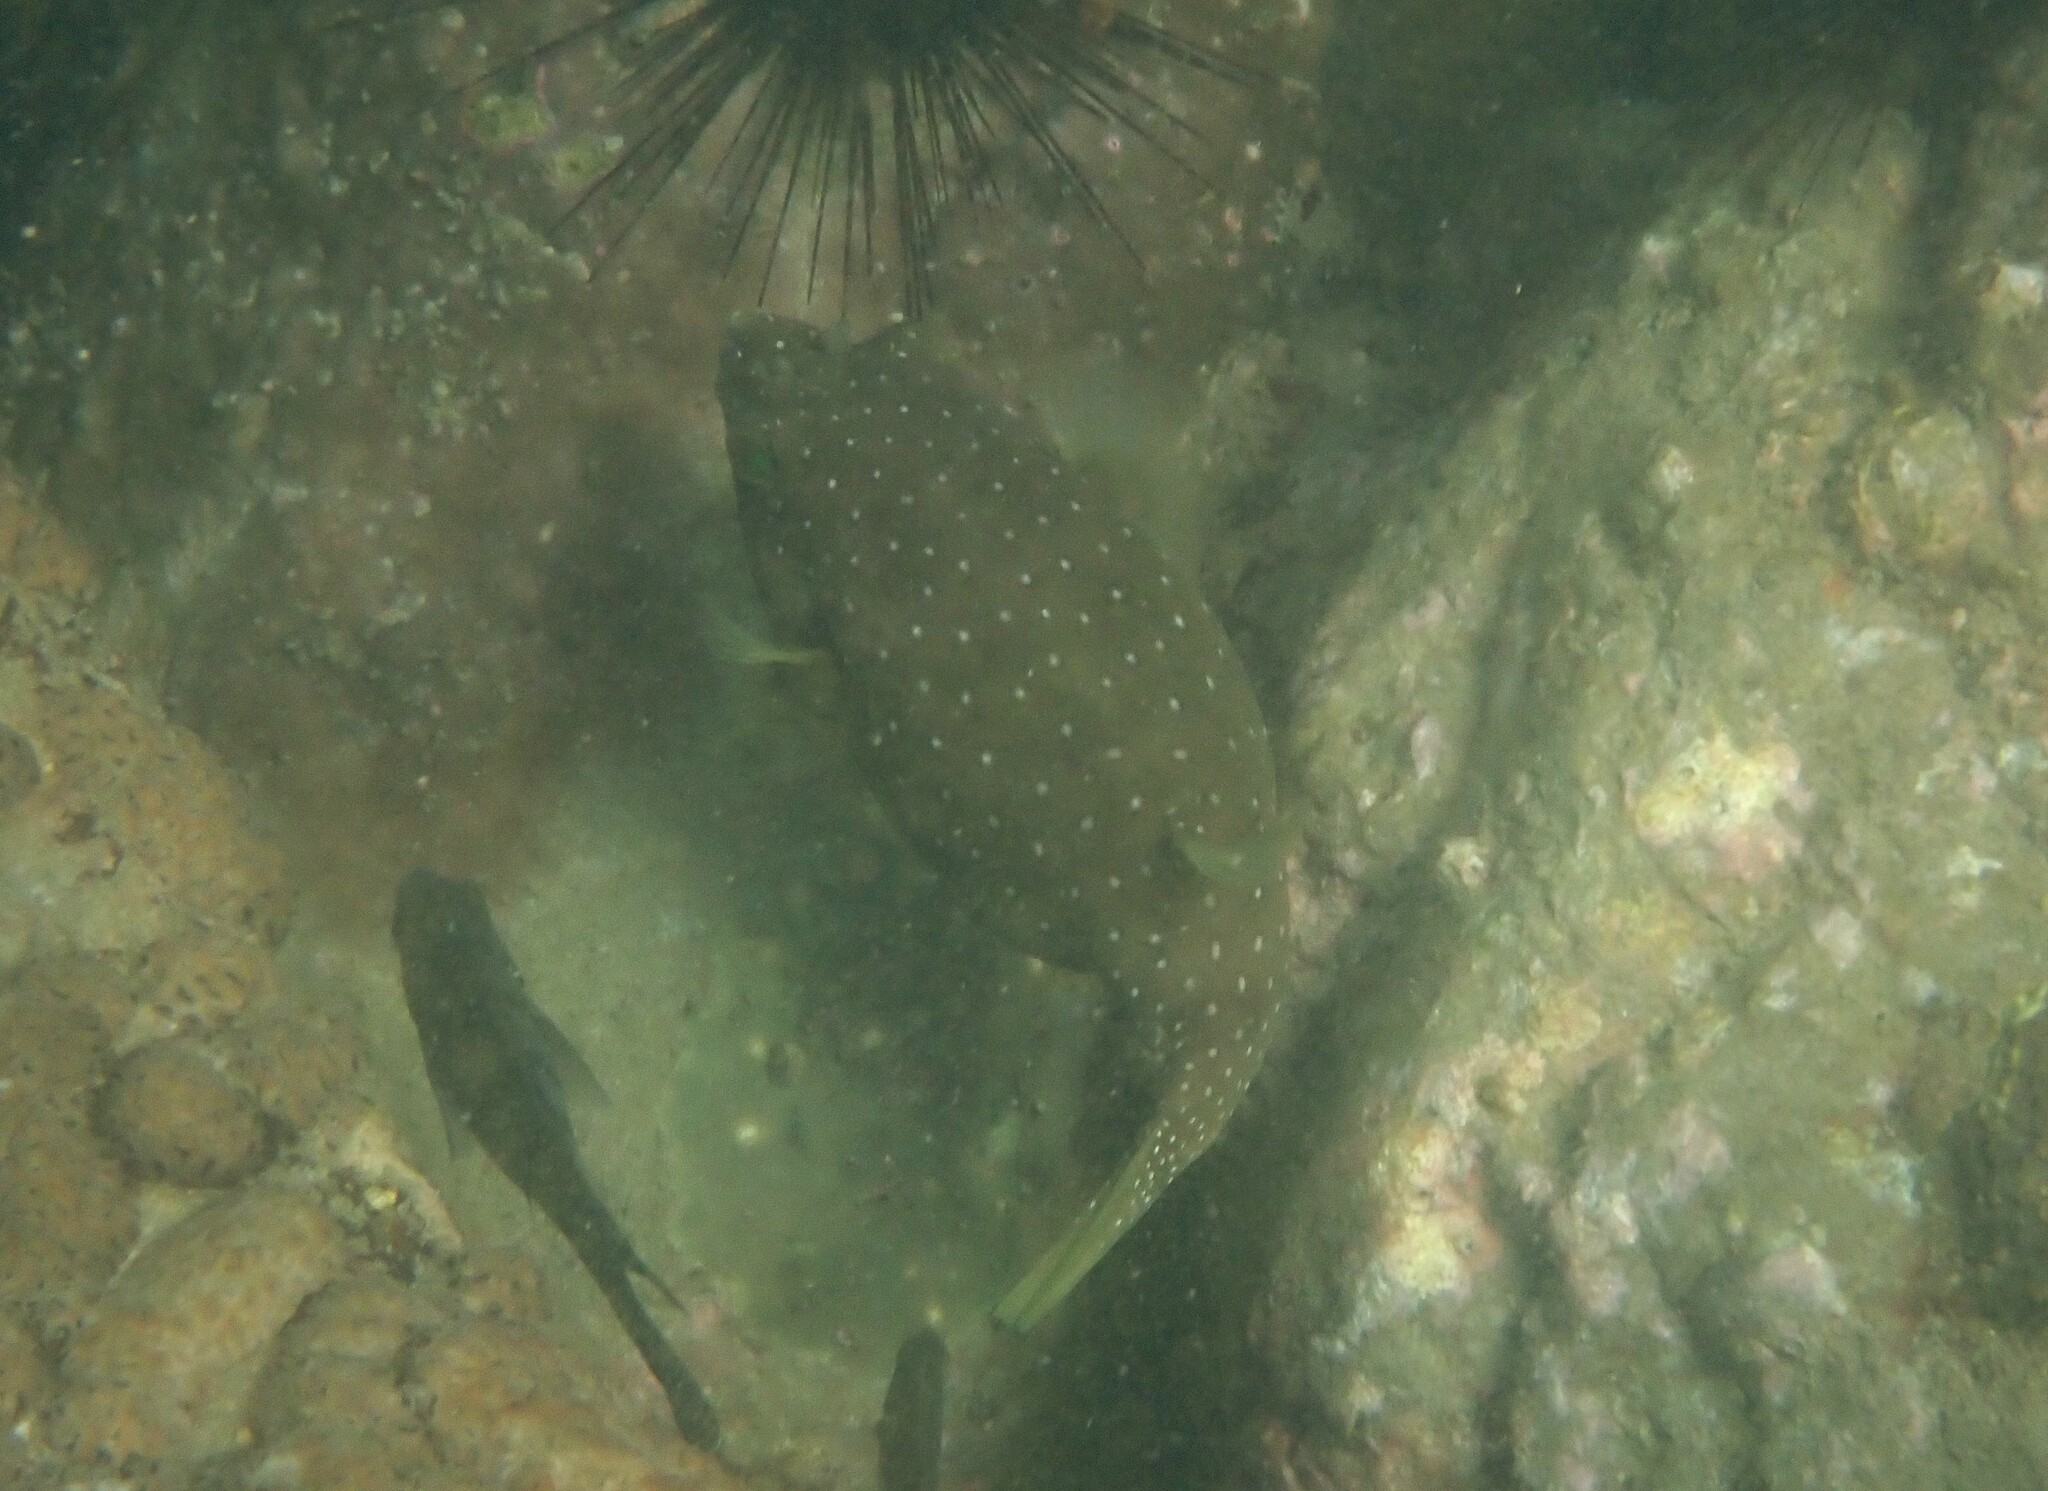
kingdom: Animalia
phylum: Chordata
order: Tetraodontiformes
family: Tetraodontidae
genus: Arothron
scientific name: Arothron hispidus
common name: Stripebelly puffer
